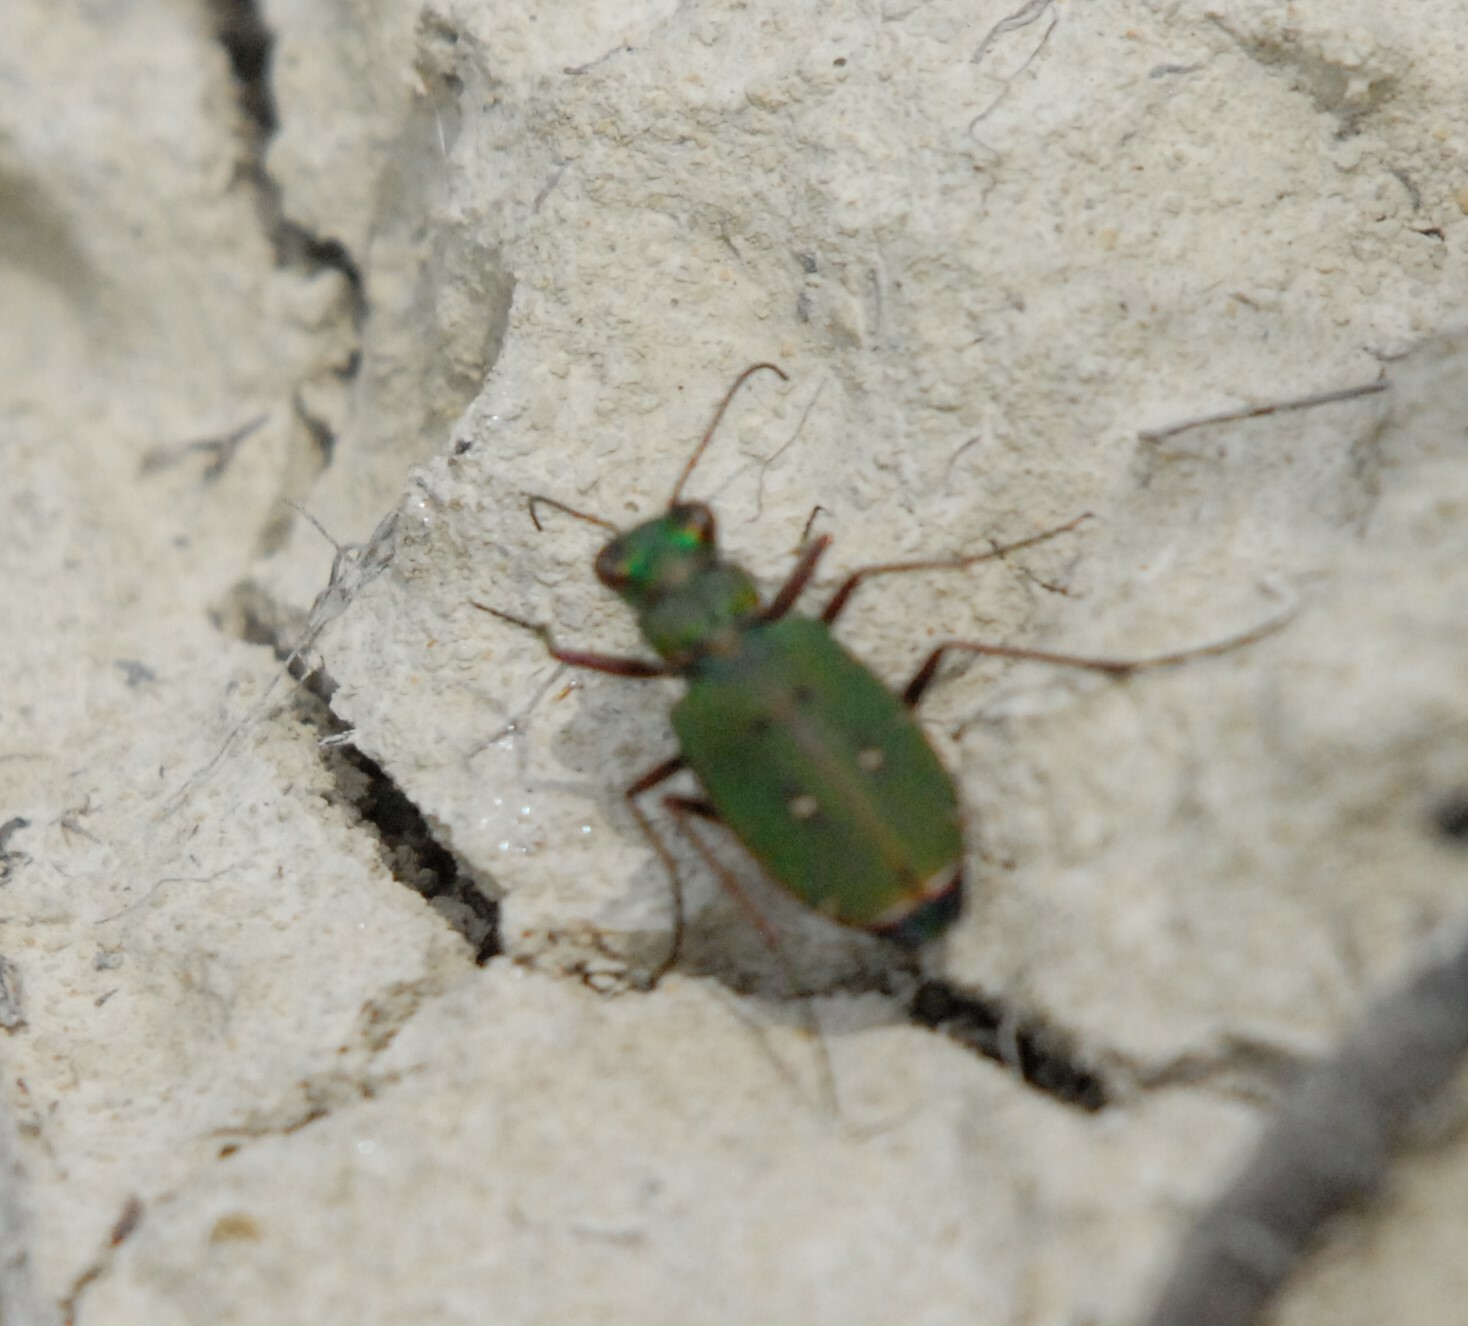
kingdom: Animalia
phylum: Arthropoda
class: Insecta
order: Coleoptera
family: Carabidae
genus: Cicindela
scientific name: Cicindela campestris
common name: Common tiger beetle
